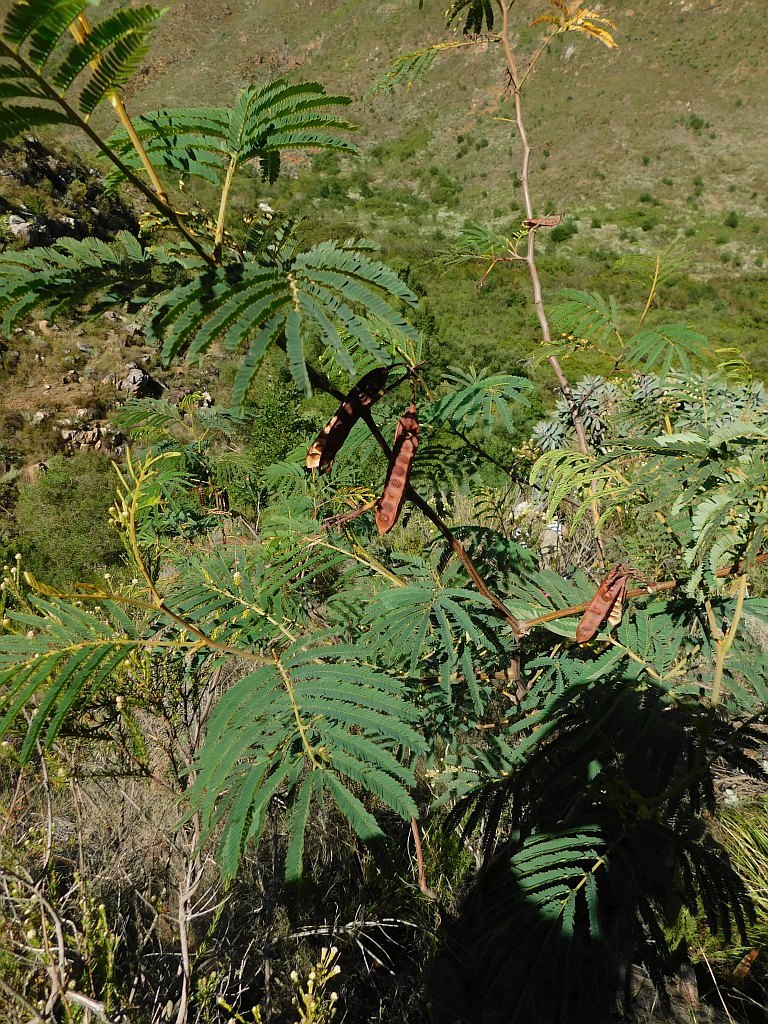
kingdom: Plantae
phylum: Tracheophyta
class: Magnoliopsida
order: Fabales
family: Fabaceae
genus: Paraserianthes
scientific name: Paraserianthes lophantha
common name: Plume albizia
